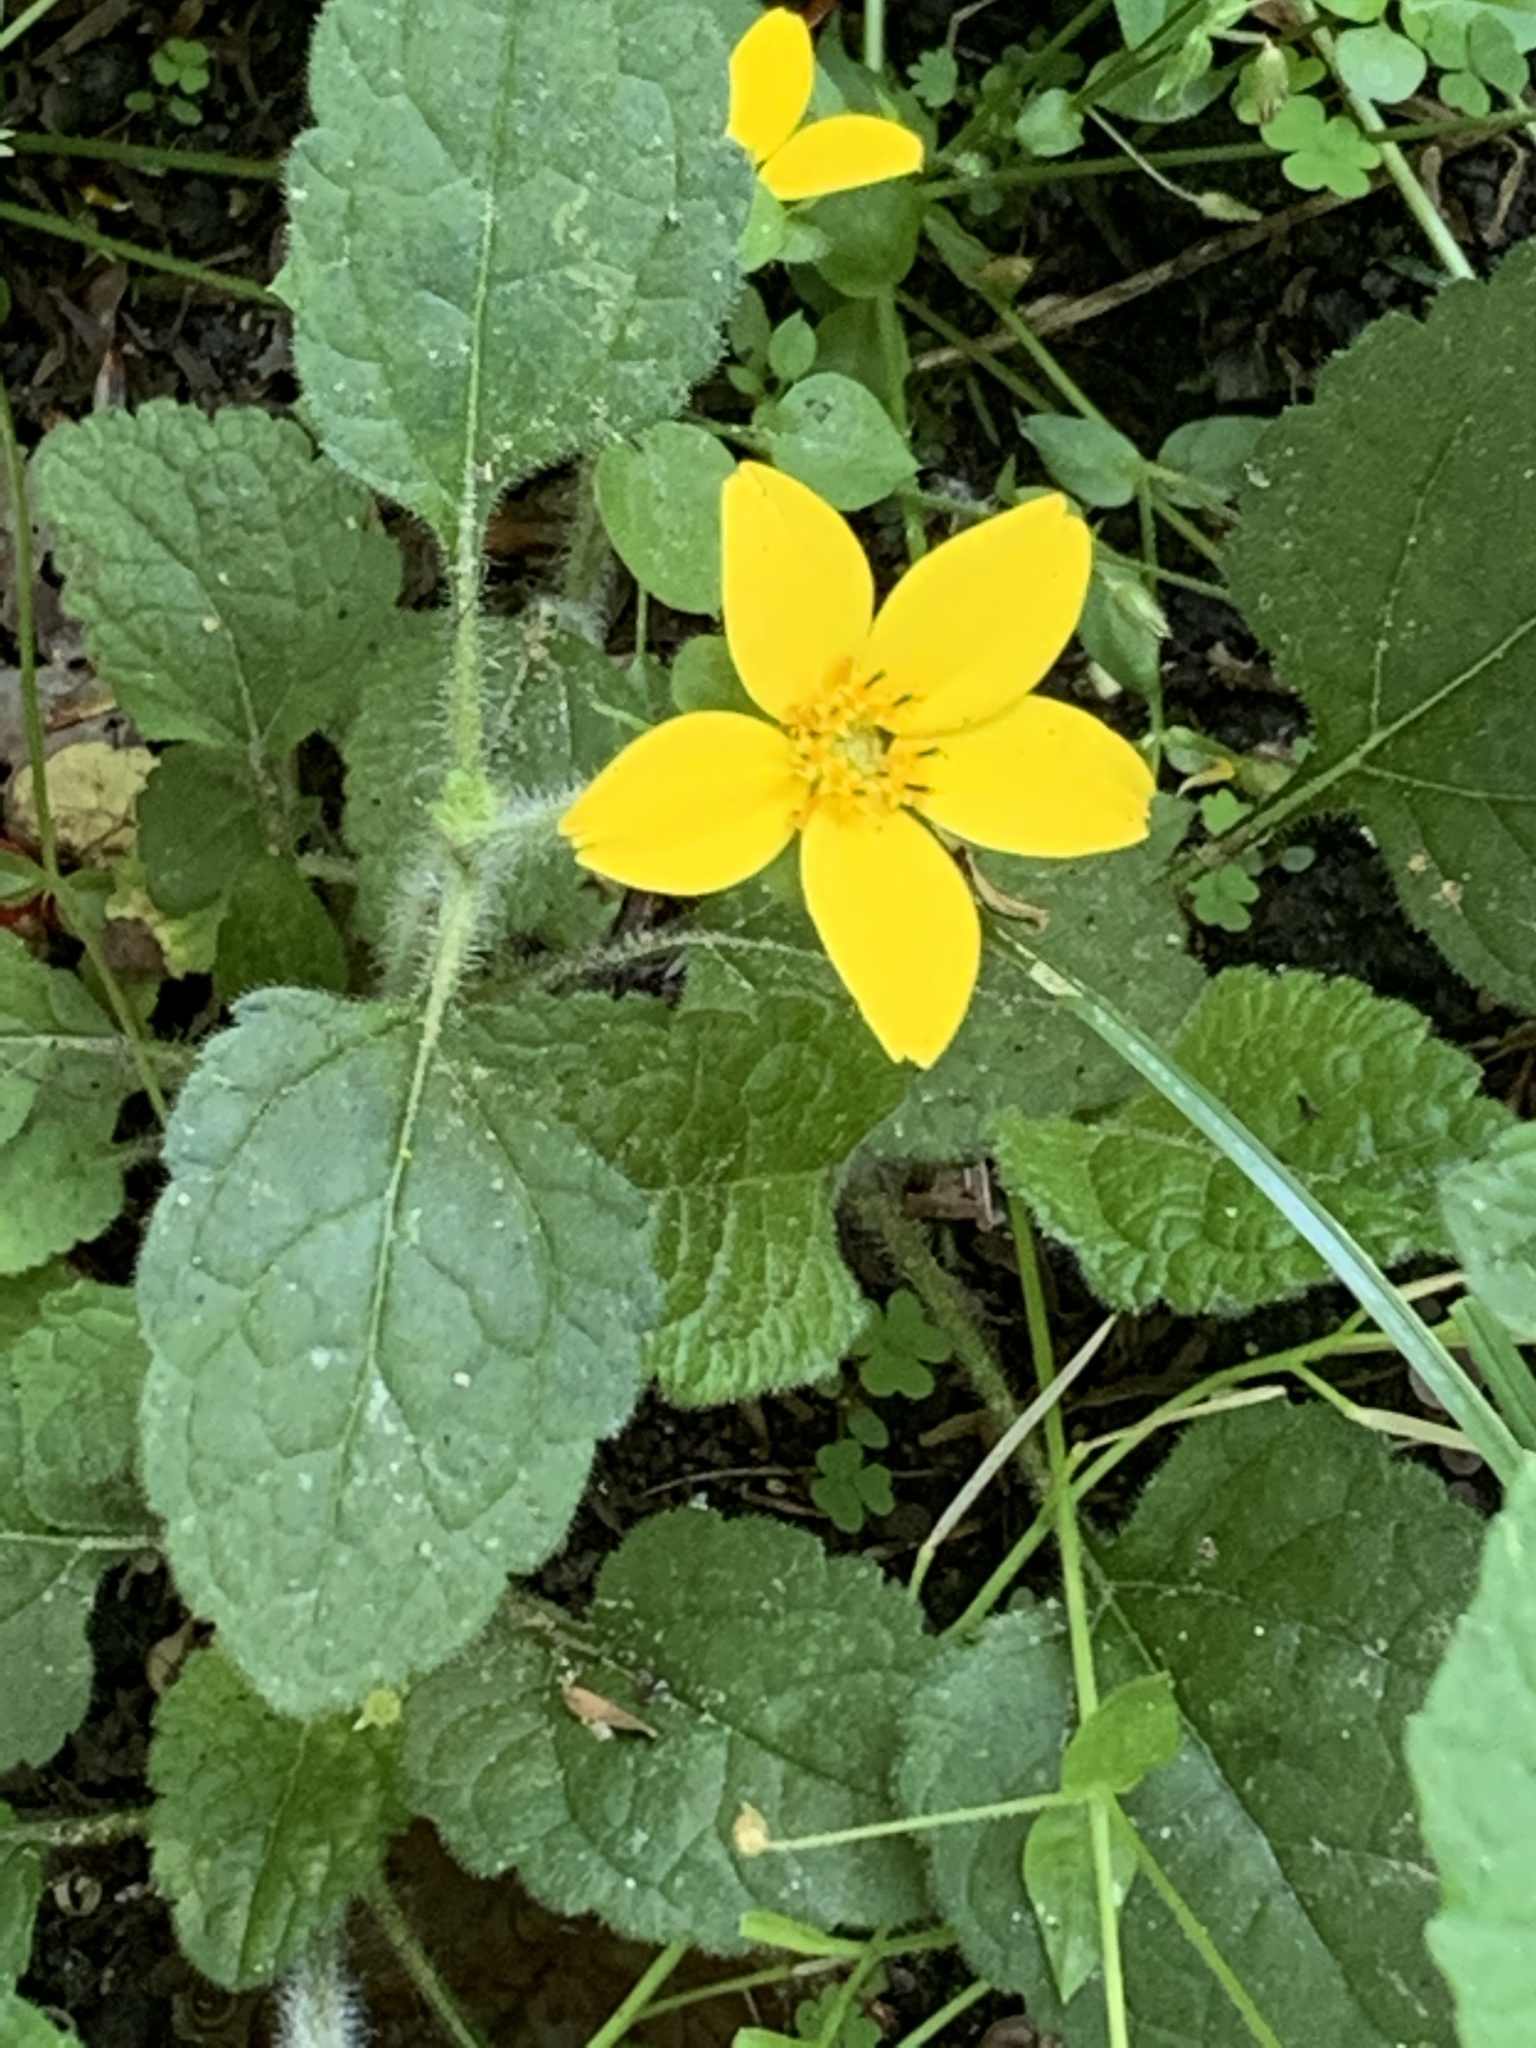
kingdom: Plantae
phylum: Tracheophyta
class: Magnoliopsida
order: Asterales
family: Asteraceae
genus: Chrysogonum
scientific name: Chrysogonum virginianum
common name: Golden-knee
